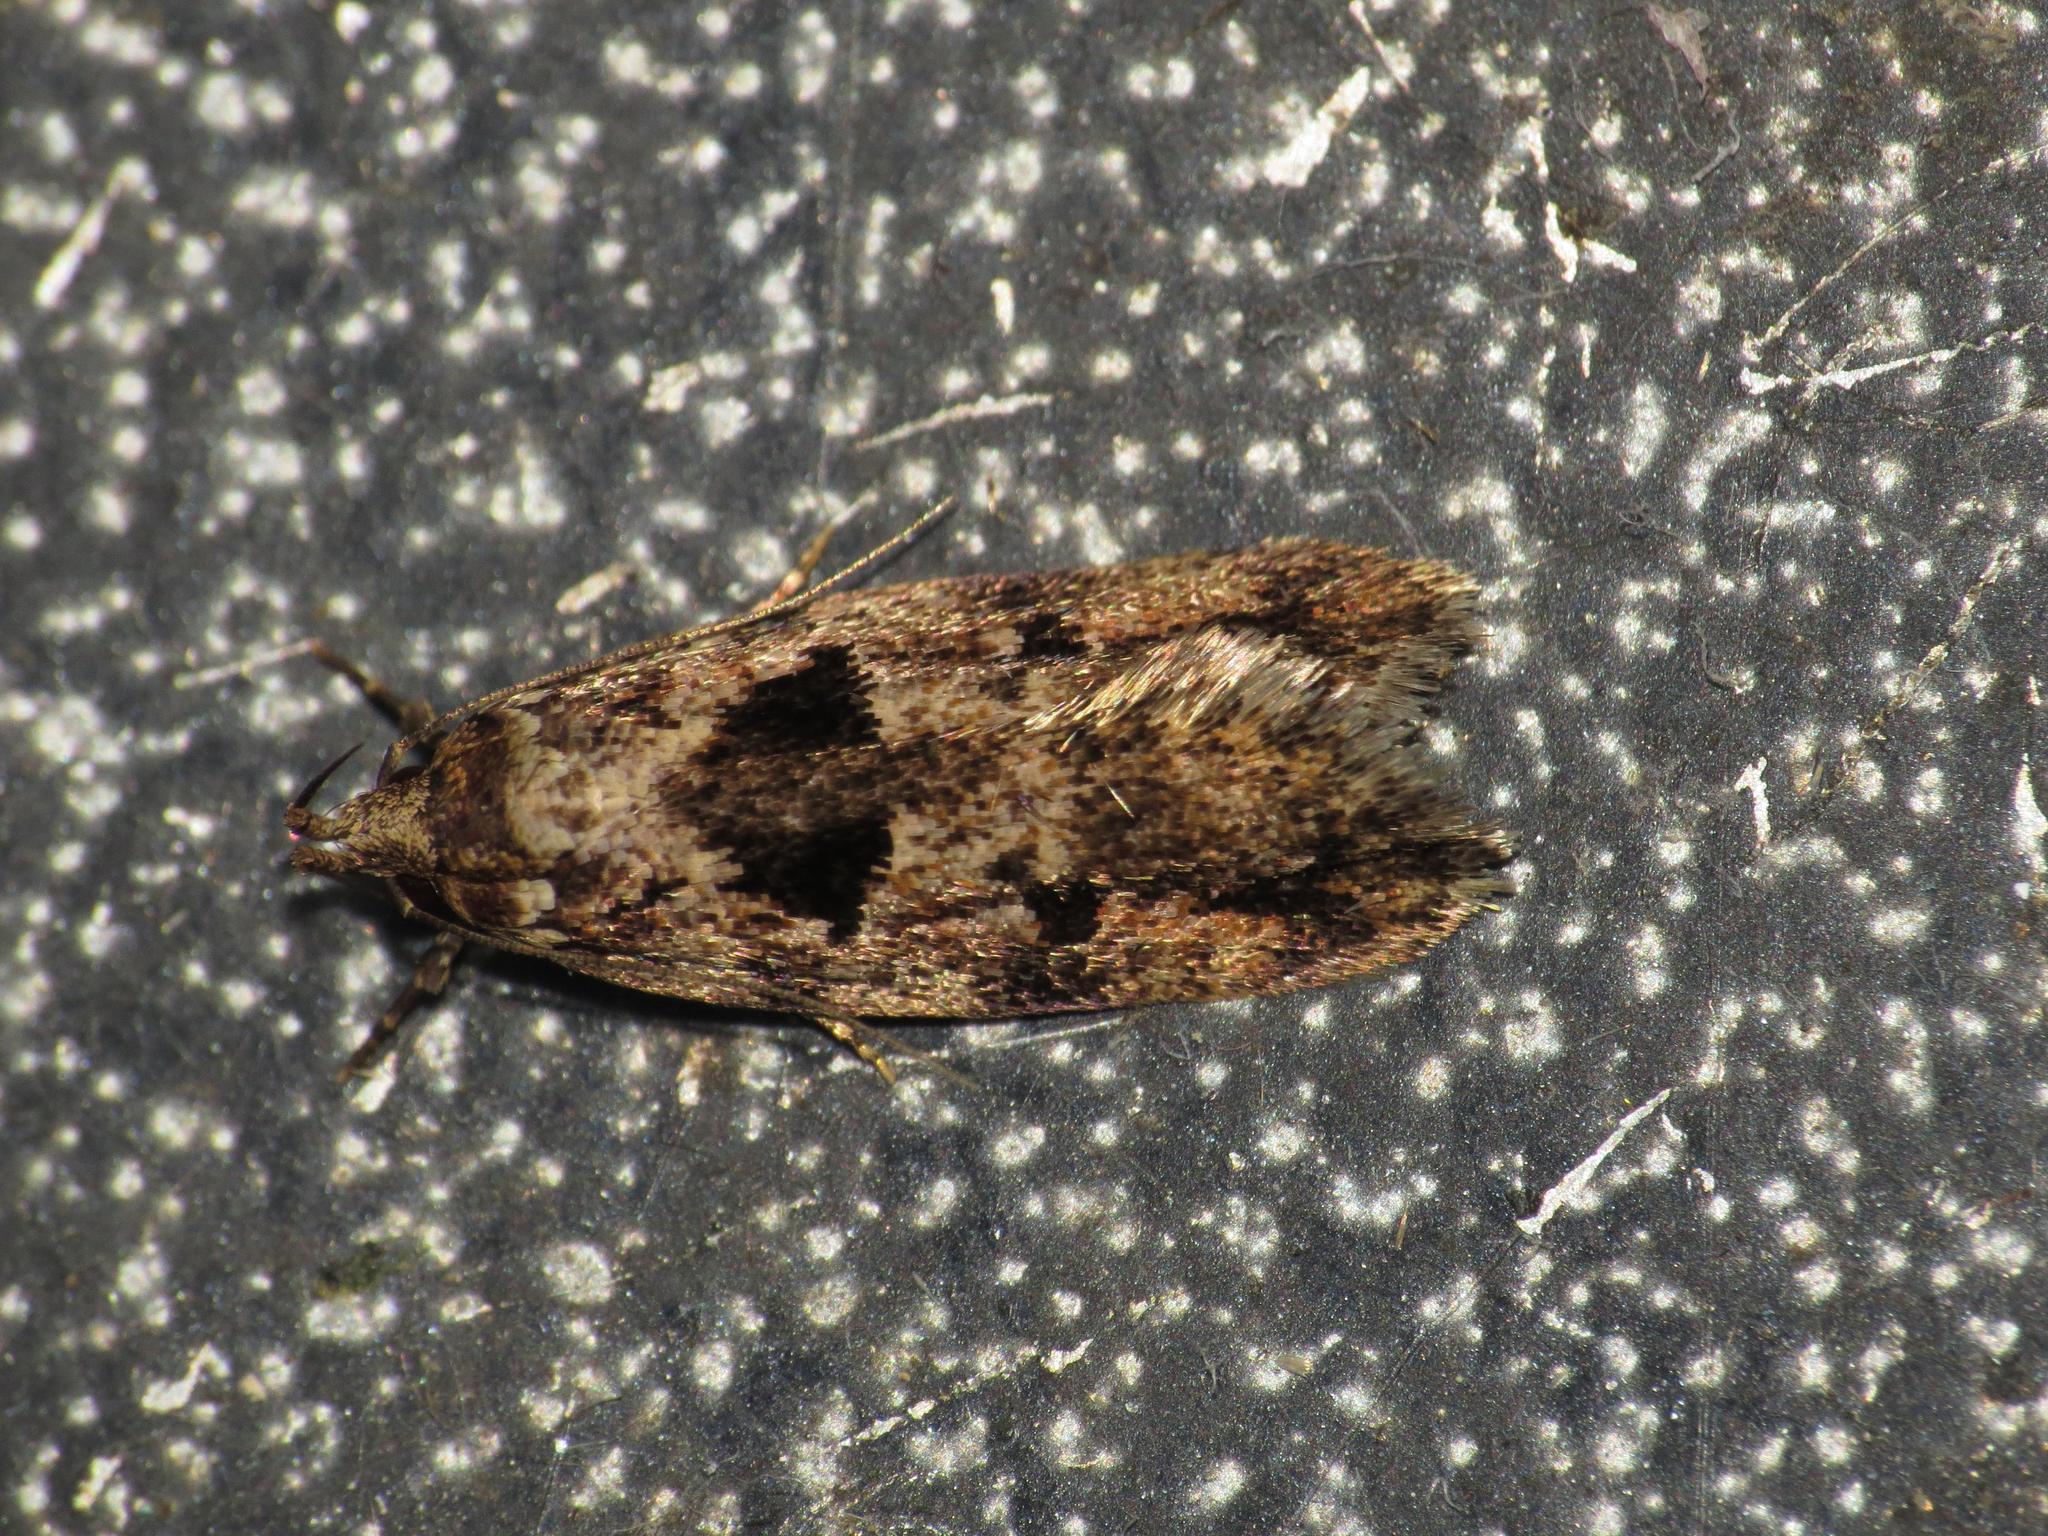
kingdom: Animalia
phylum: Arthropoda
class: Insecta
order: Lepidoptera
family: Oecophoridae
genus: Barea
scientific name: Barea melanodelta
